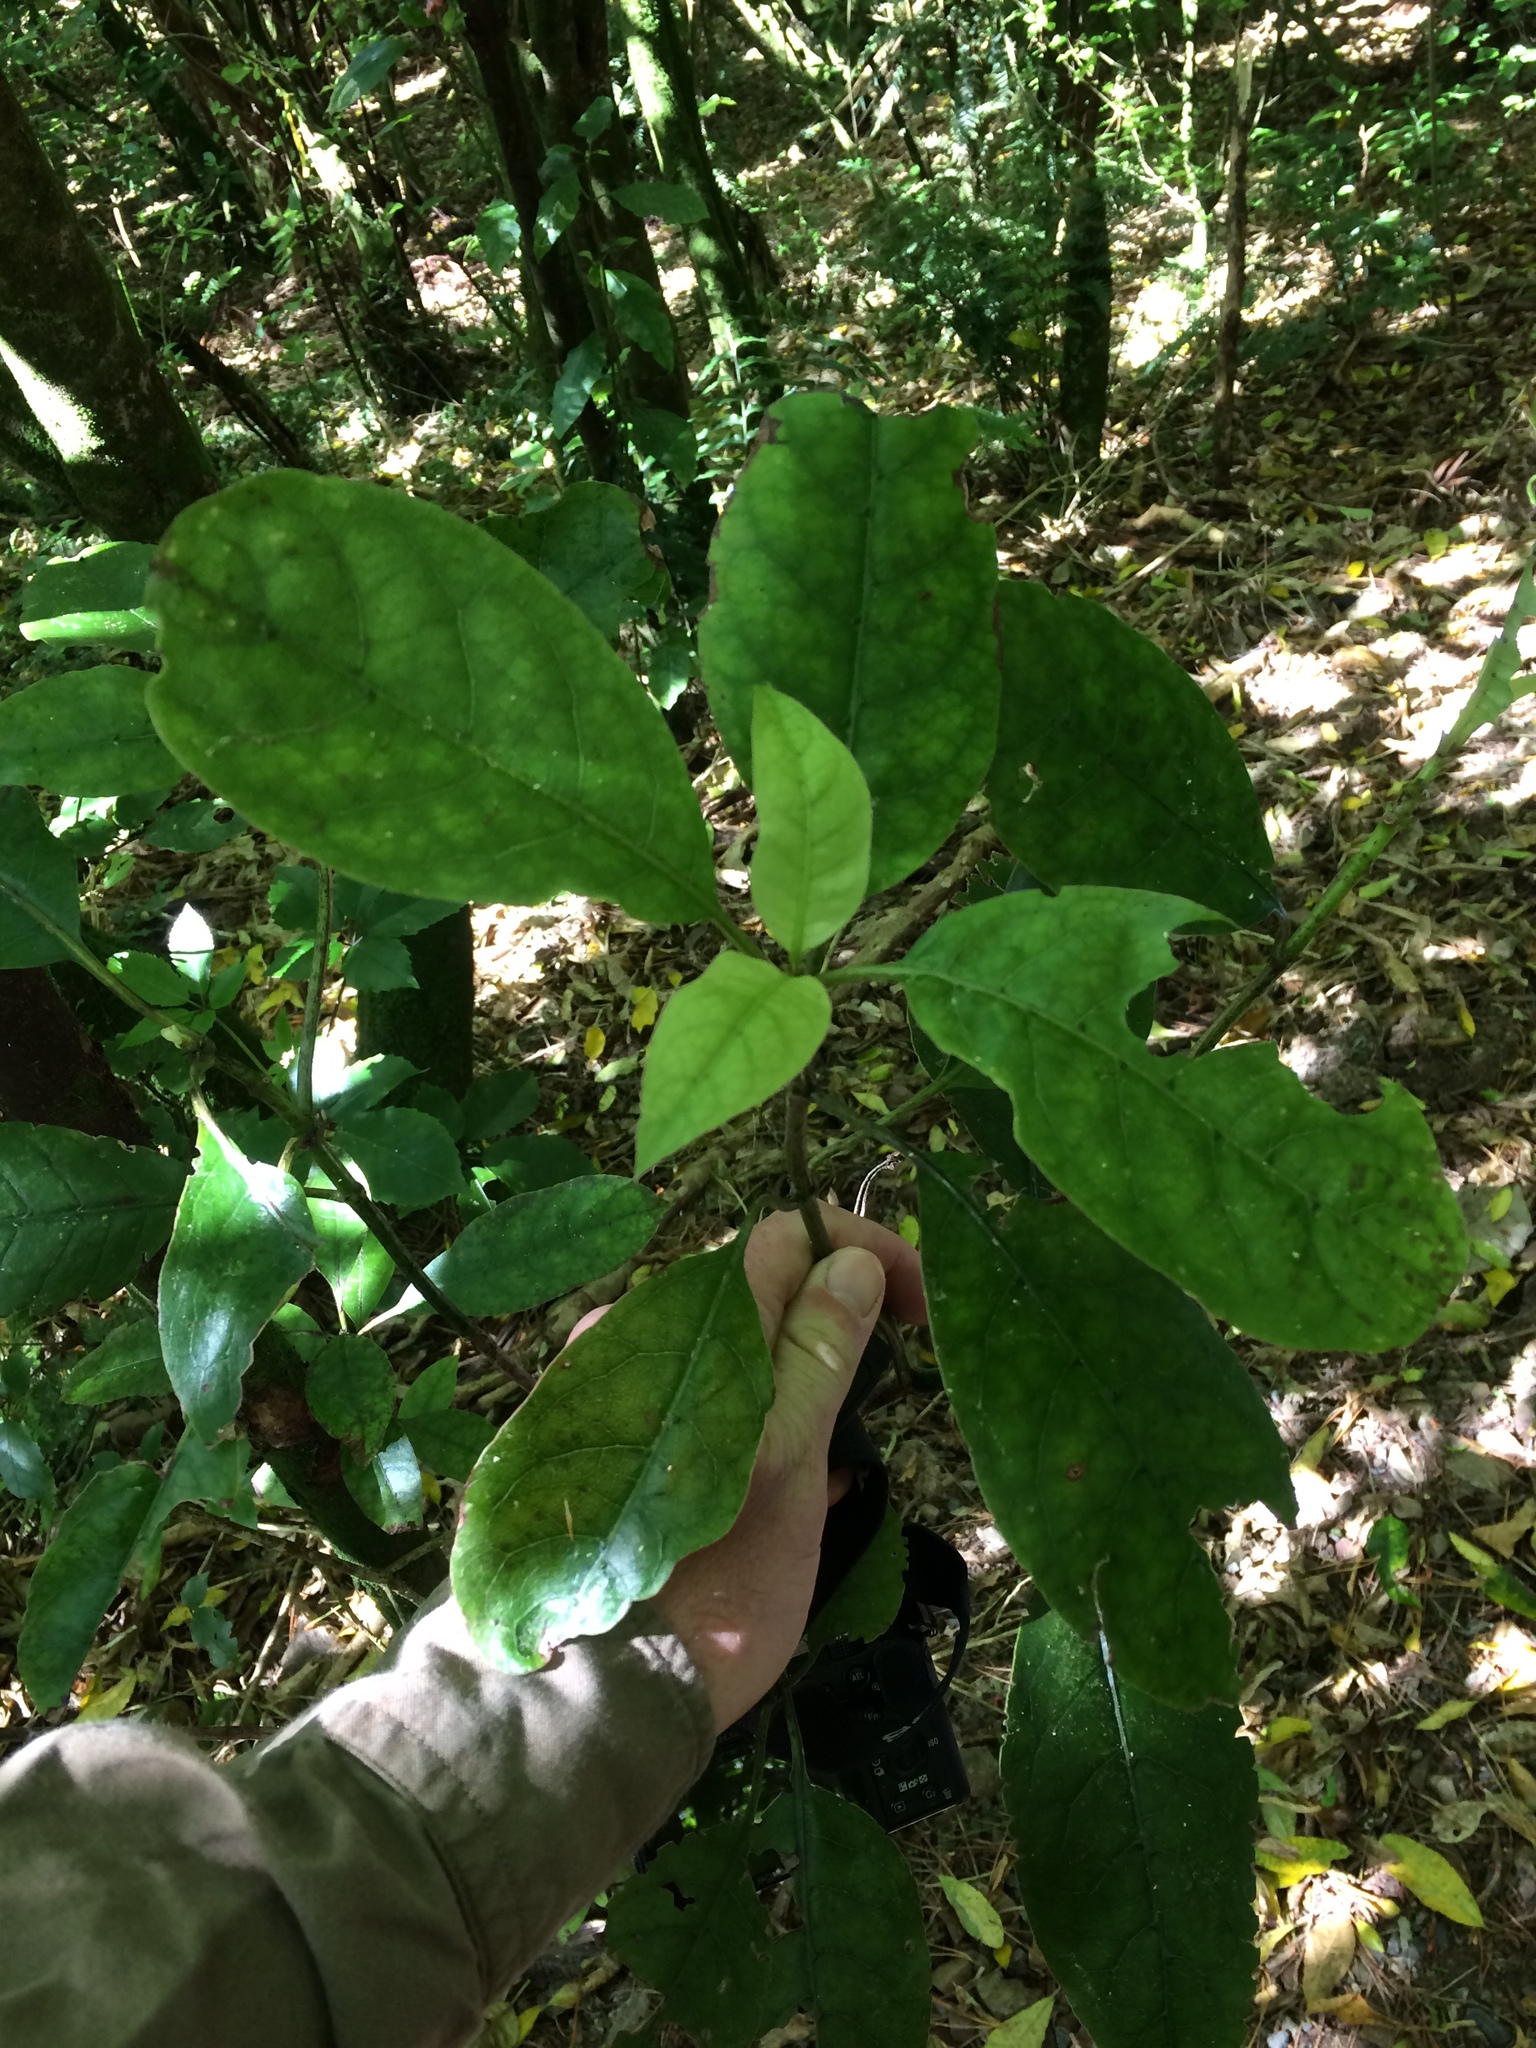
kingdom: Plantae
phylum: Tracheophyta
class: Magnoliopsida
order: Gentianales
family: Rubiaceae
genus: Coprosma
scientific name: Coprosma autumnalis
